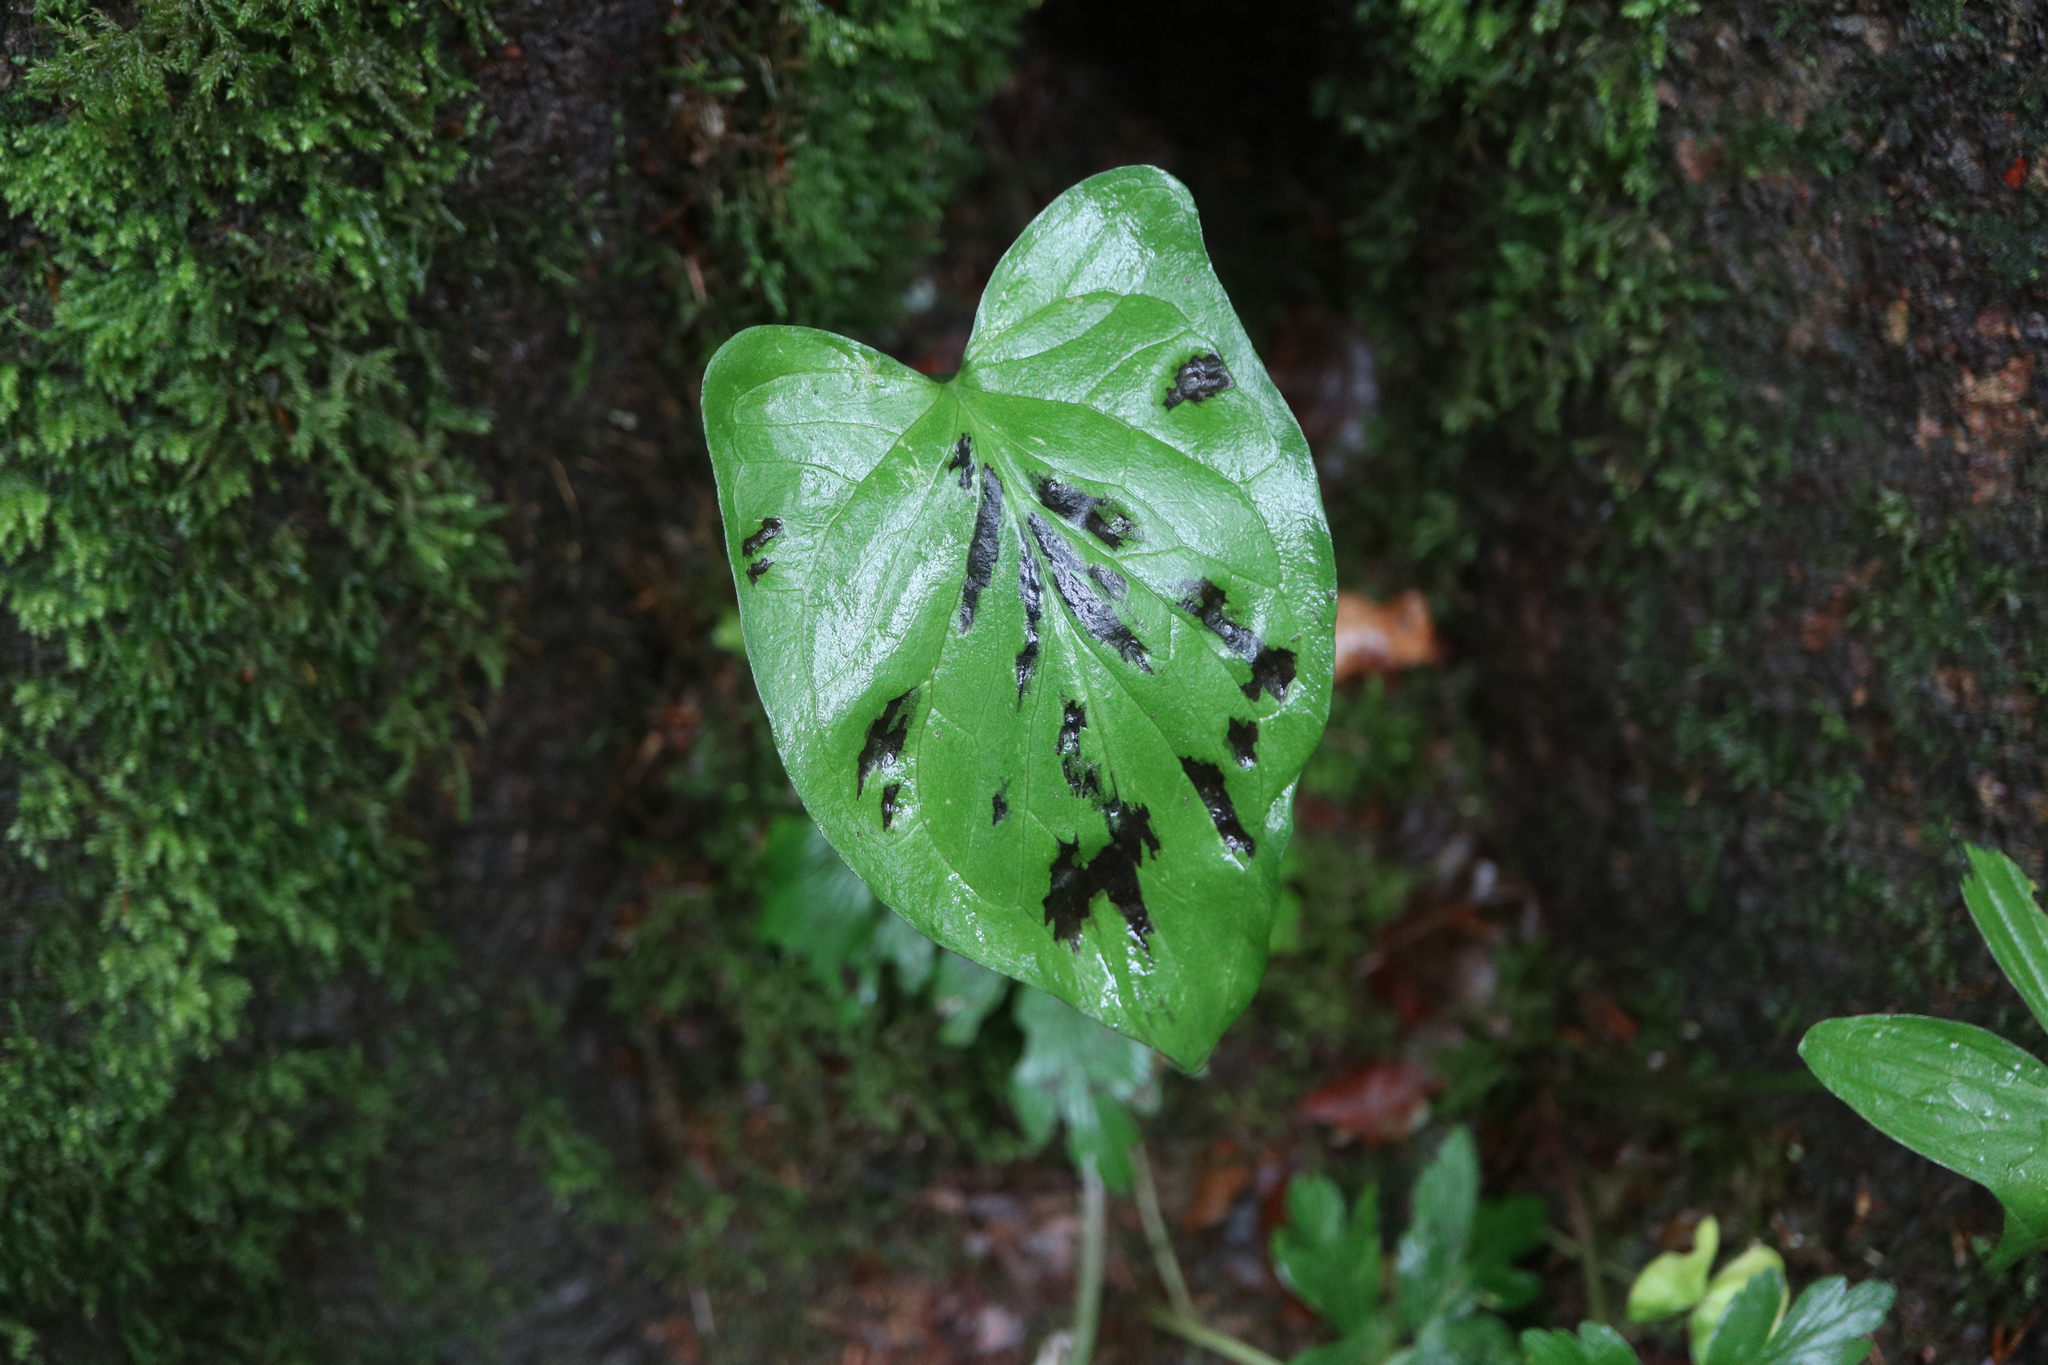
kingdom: Plantae
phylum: Tracheophyta
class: Liliopsida
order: Alismatales
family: Araceae
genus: Arum
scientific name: Arum maculatum
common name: Lords-and-ladies
